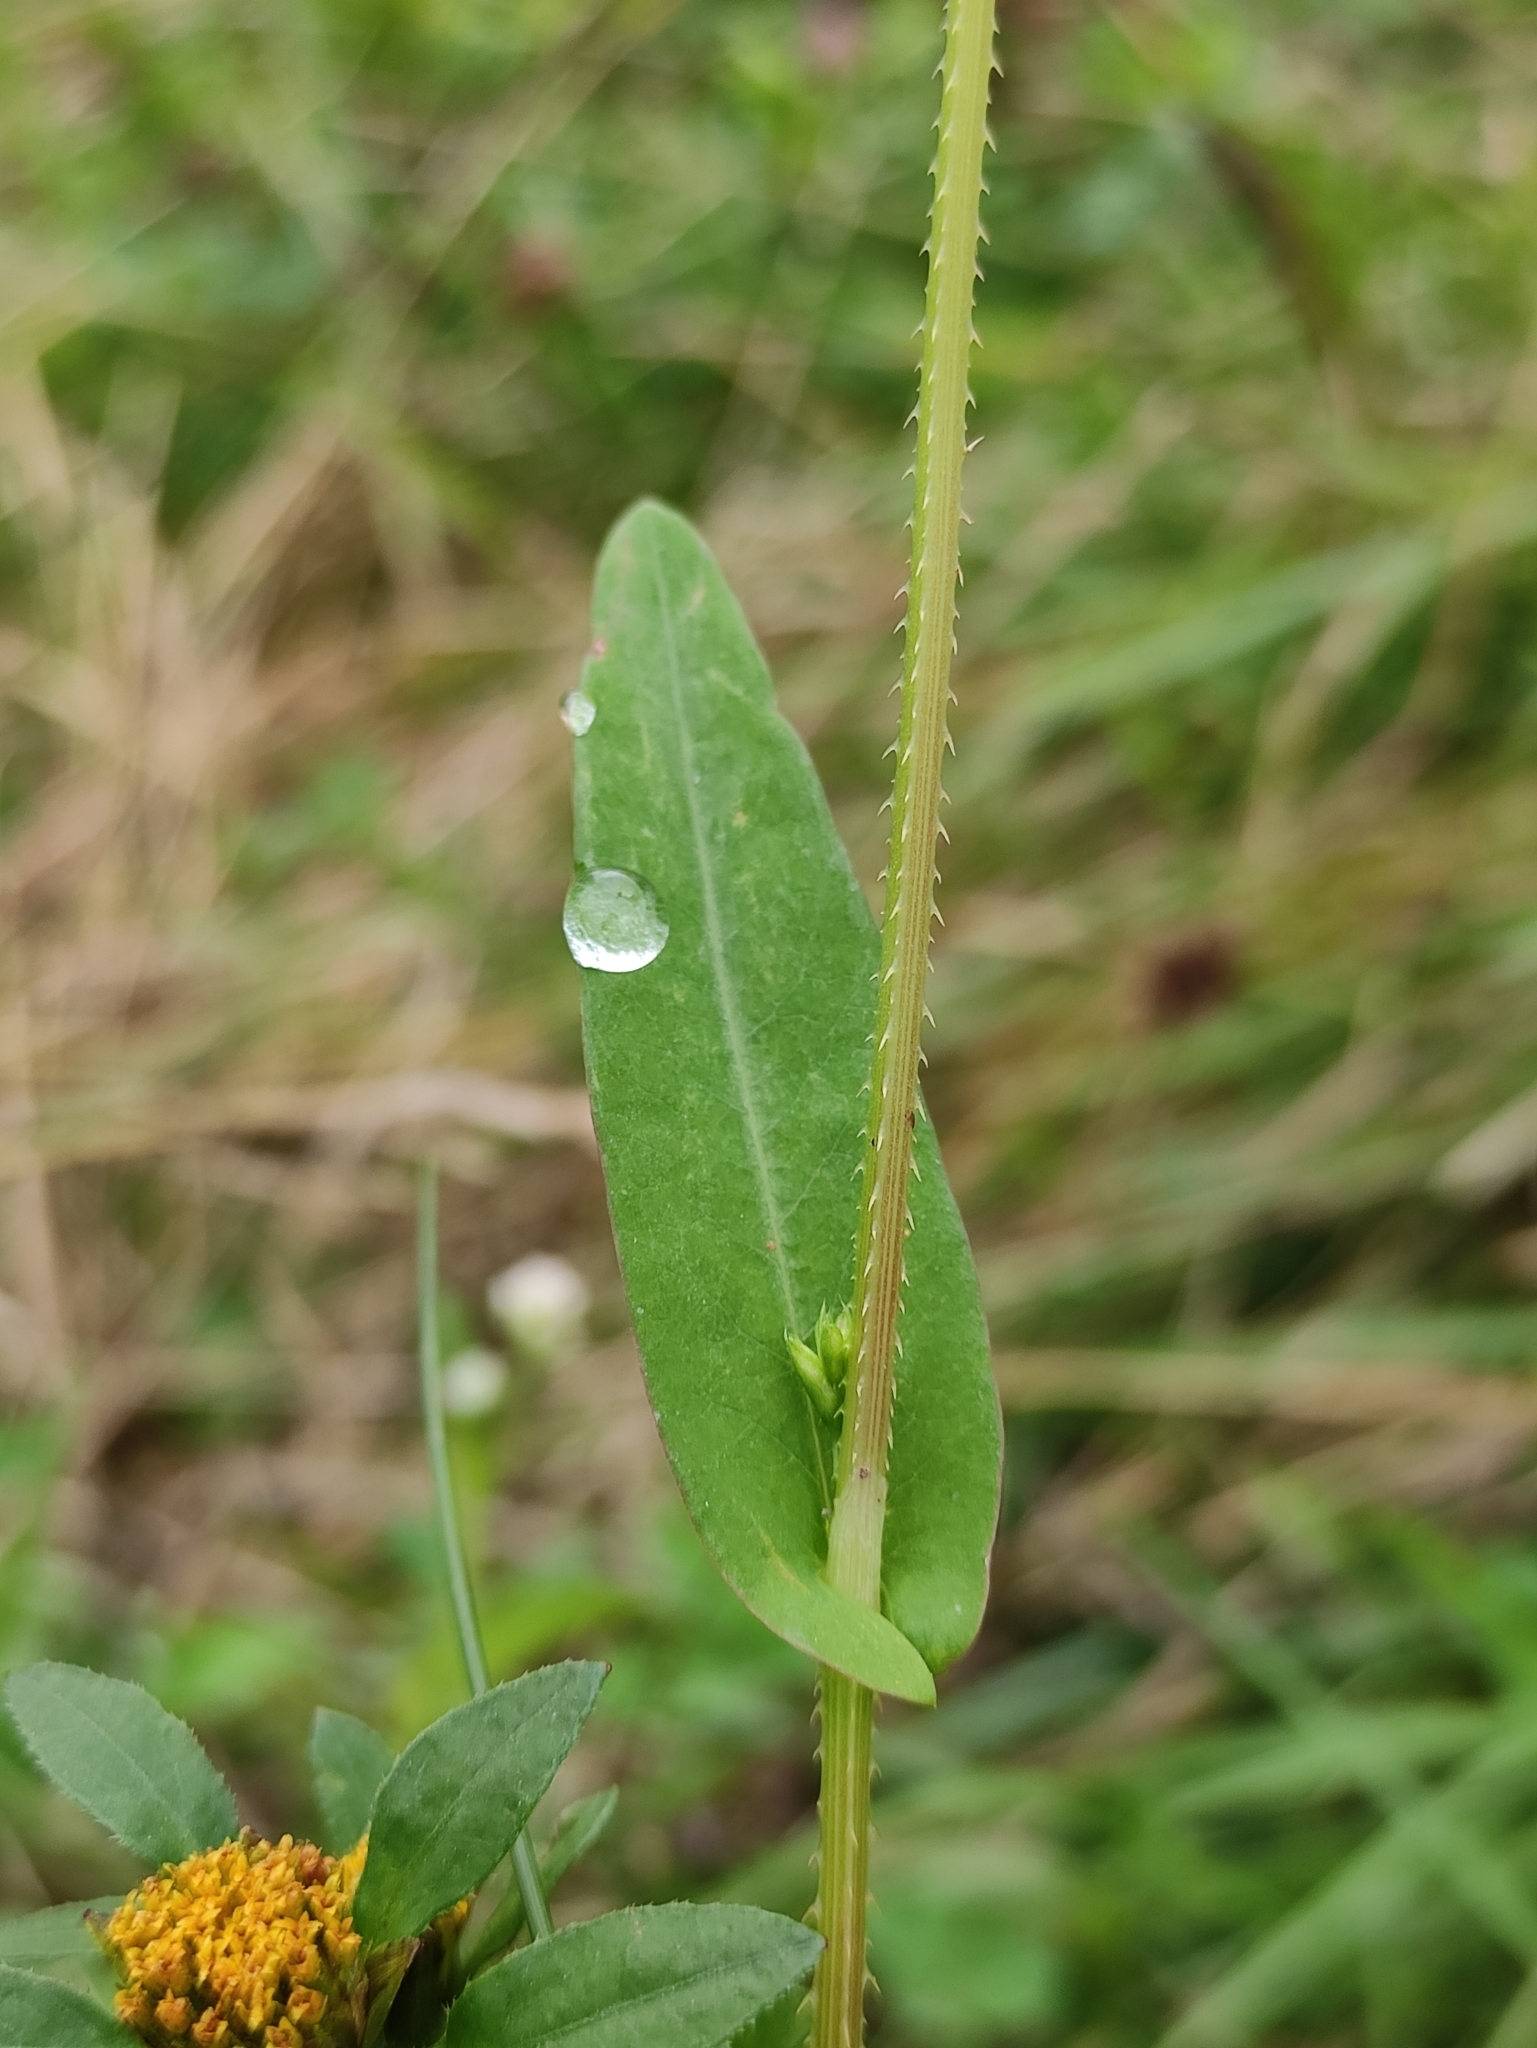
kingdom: Plantae
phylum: Tracheophyta
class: Magnoliopsida
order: Caryophyllales
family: Polygonaceae
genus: Persicaria
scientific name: Persicaria sagittata
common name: American tearthumb
